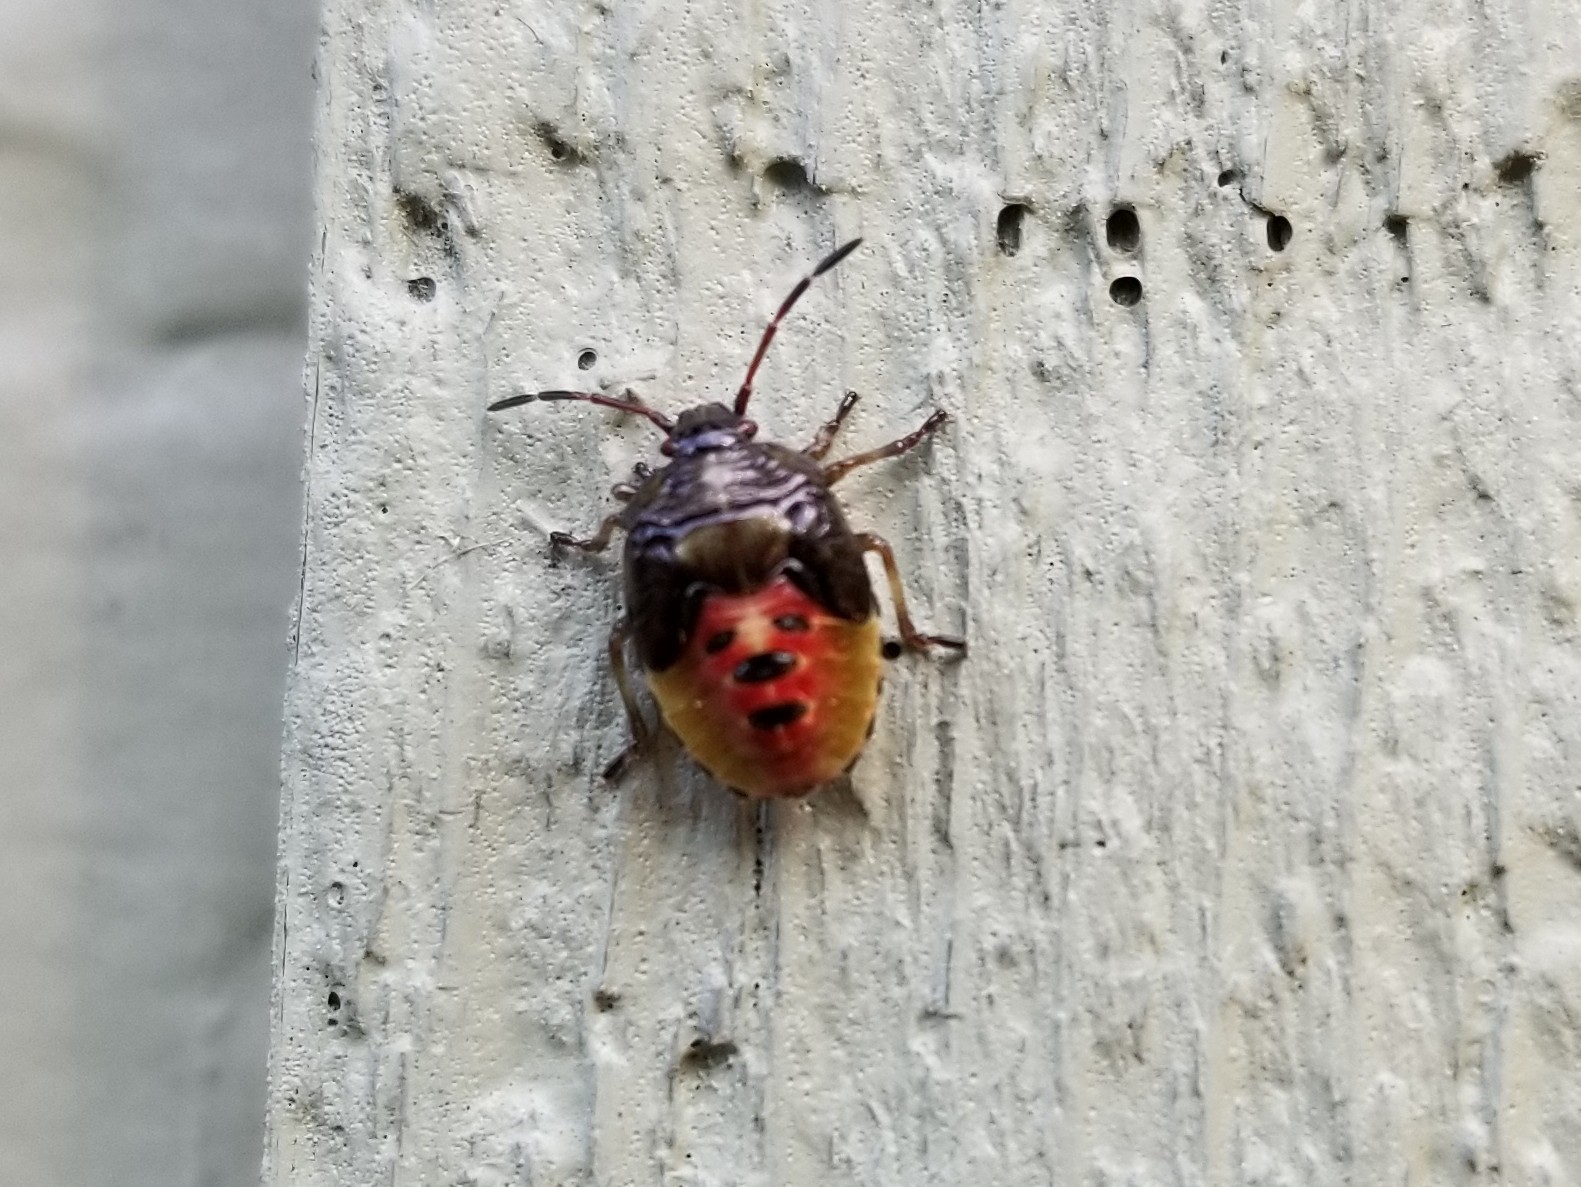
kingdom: Animalia
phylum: Arthropoda
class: Insecta
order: Hemiptera
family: Acanthosomatidae
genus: Elasmostethus
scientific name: Elasmostethus interstinctus
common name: Birch shieldbug
